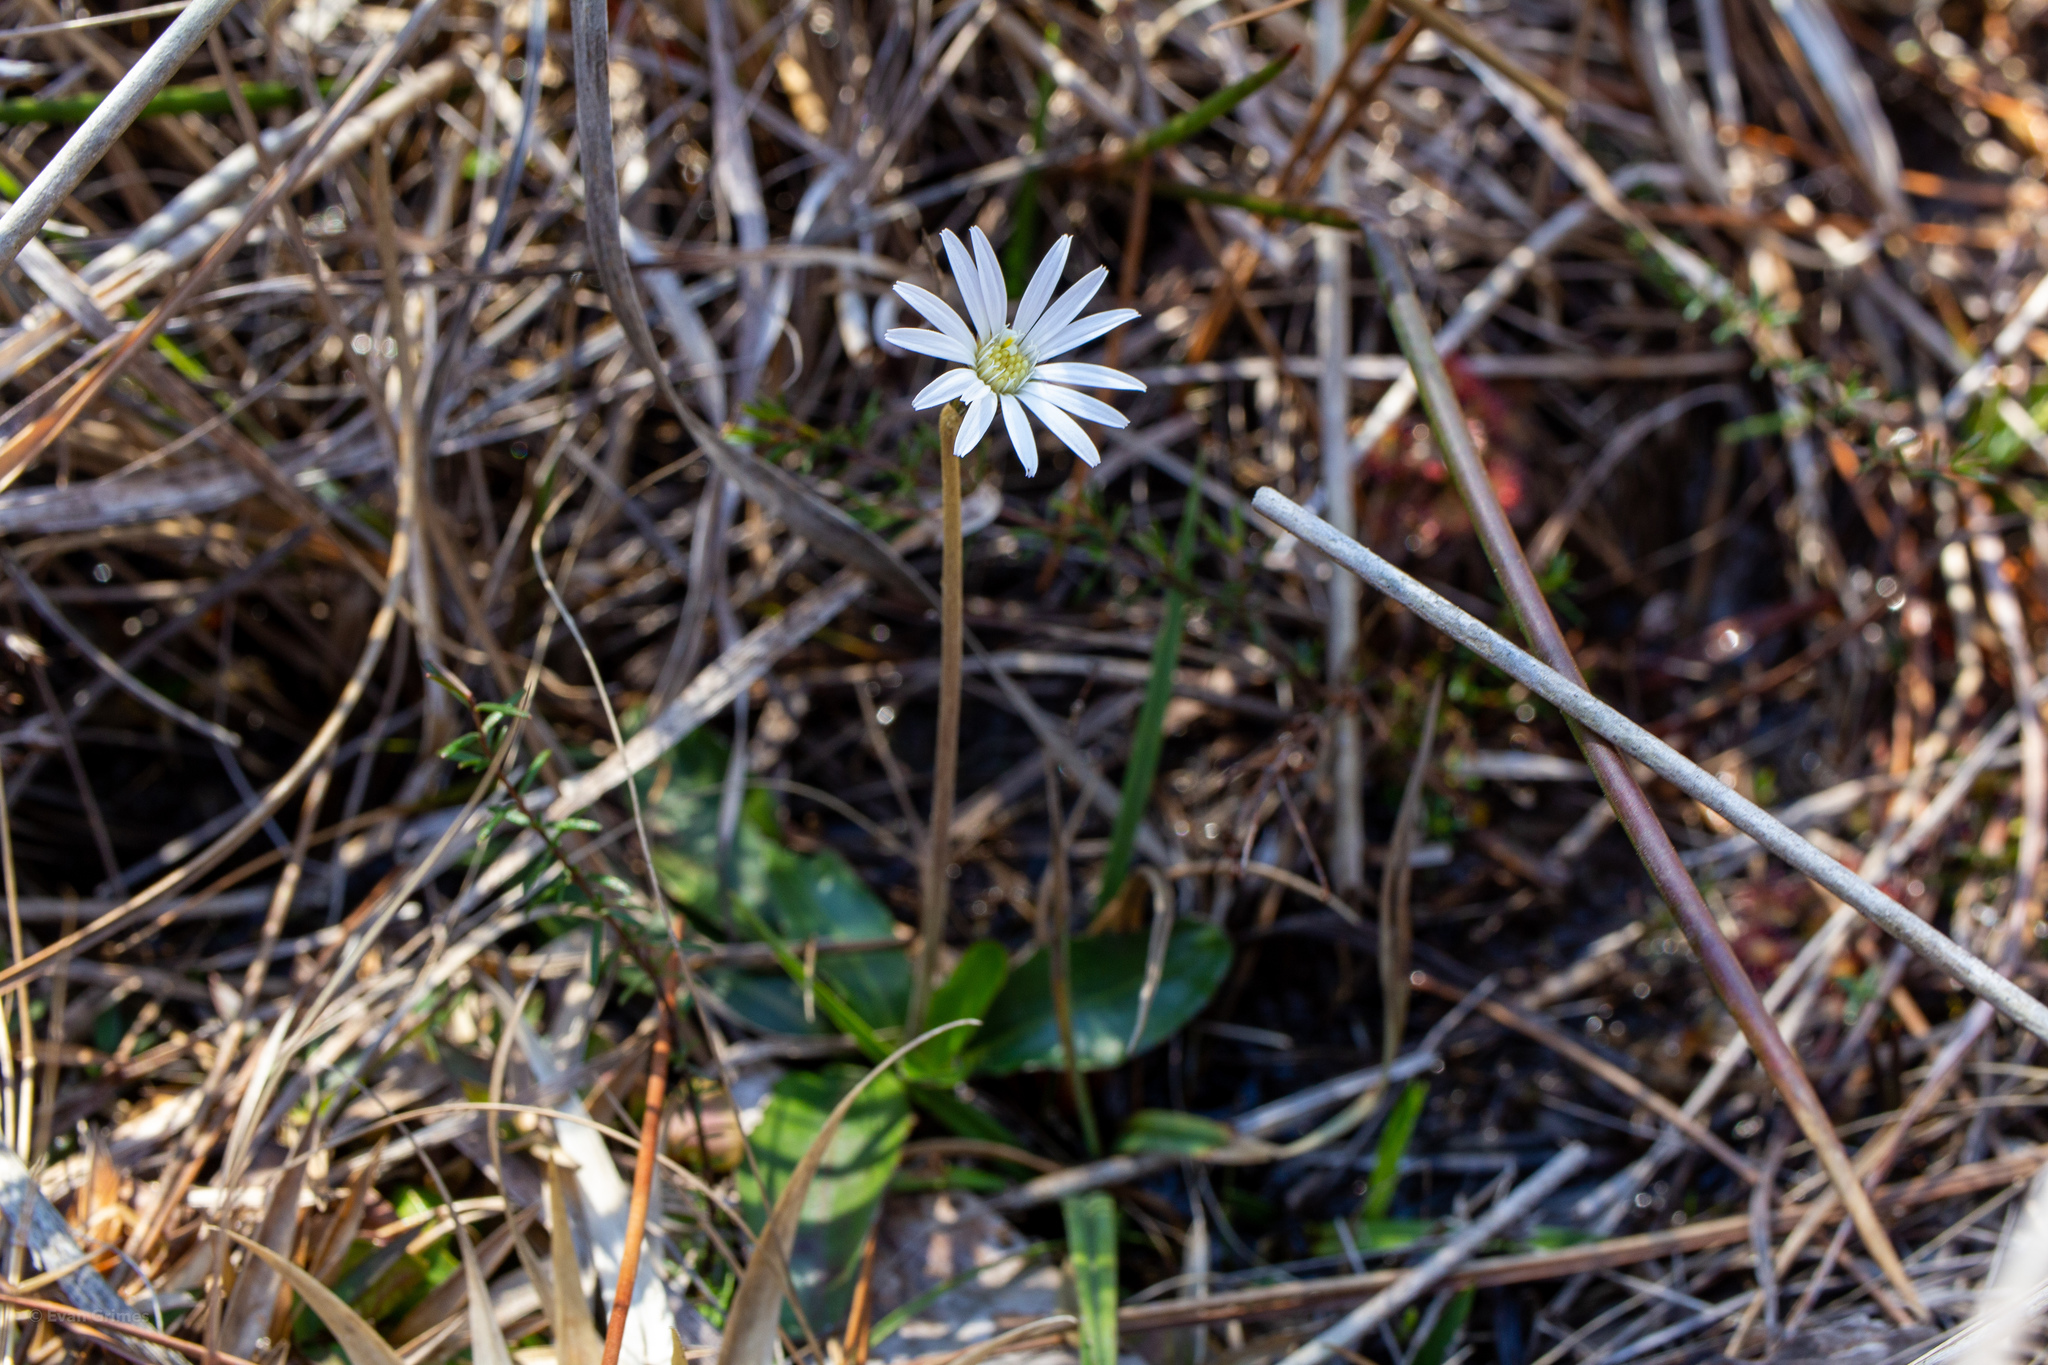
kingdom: Plantae
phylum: Tracheophyta
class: Magnoliopsida
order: Asterales
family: Asteraceae
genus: Chaptalia
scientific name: Chaptalia tomentosa
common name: Woolly sunbonnet
